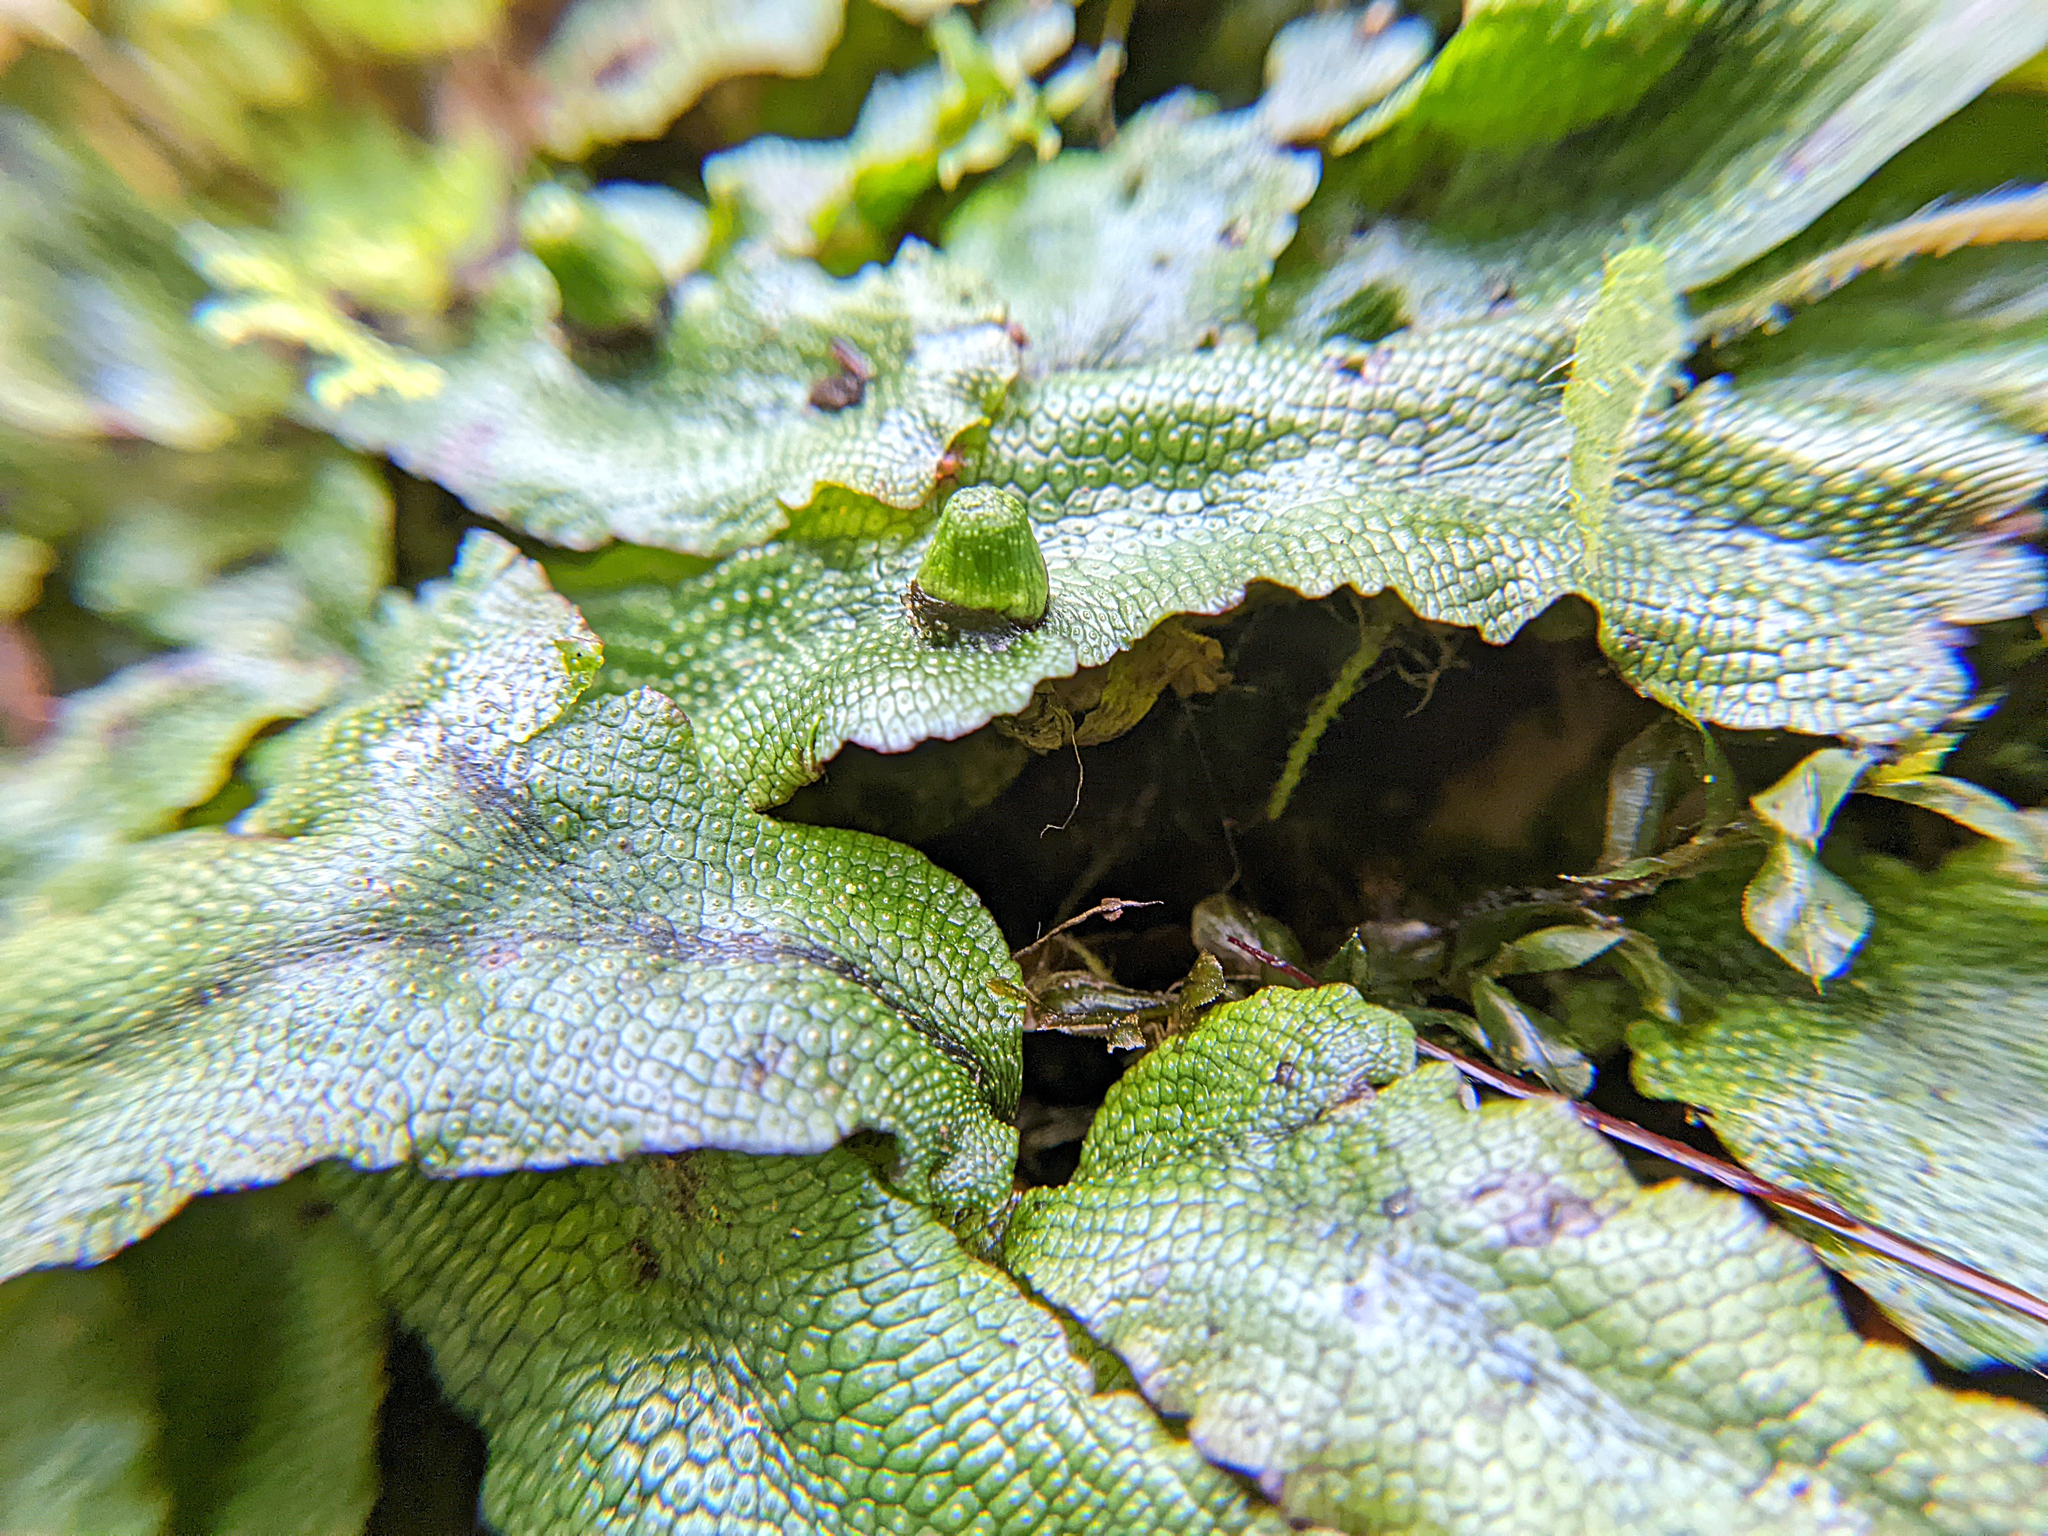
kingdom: Plantae
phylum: Marchantiophyta
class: Marchantiopsida
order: Marchantiales
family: Conocephalaceae
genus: Conocephalum
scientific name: Conocephalum salebrosum
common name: Cat-tongue liverwort
